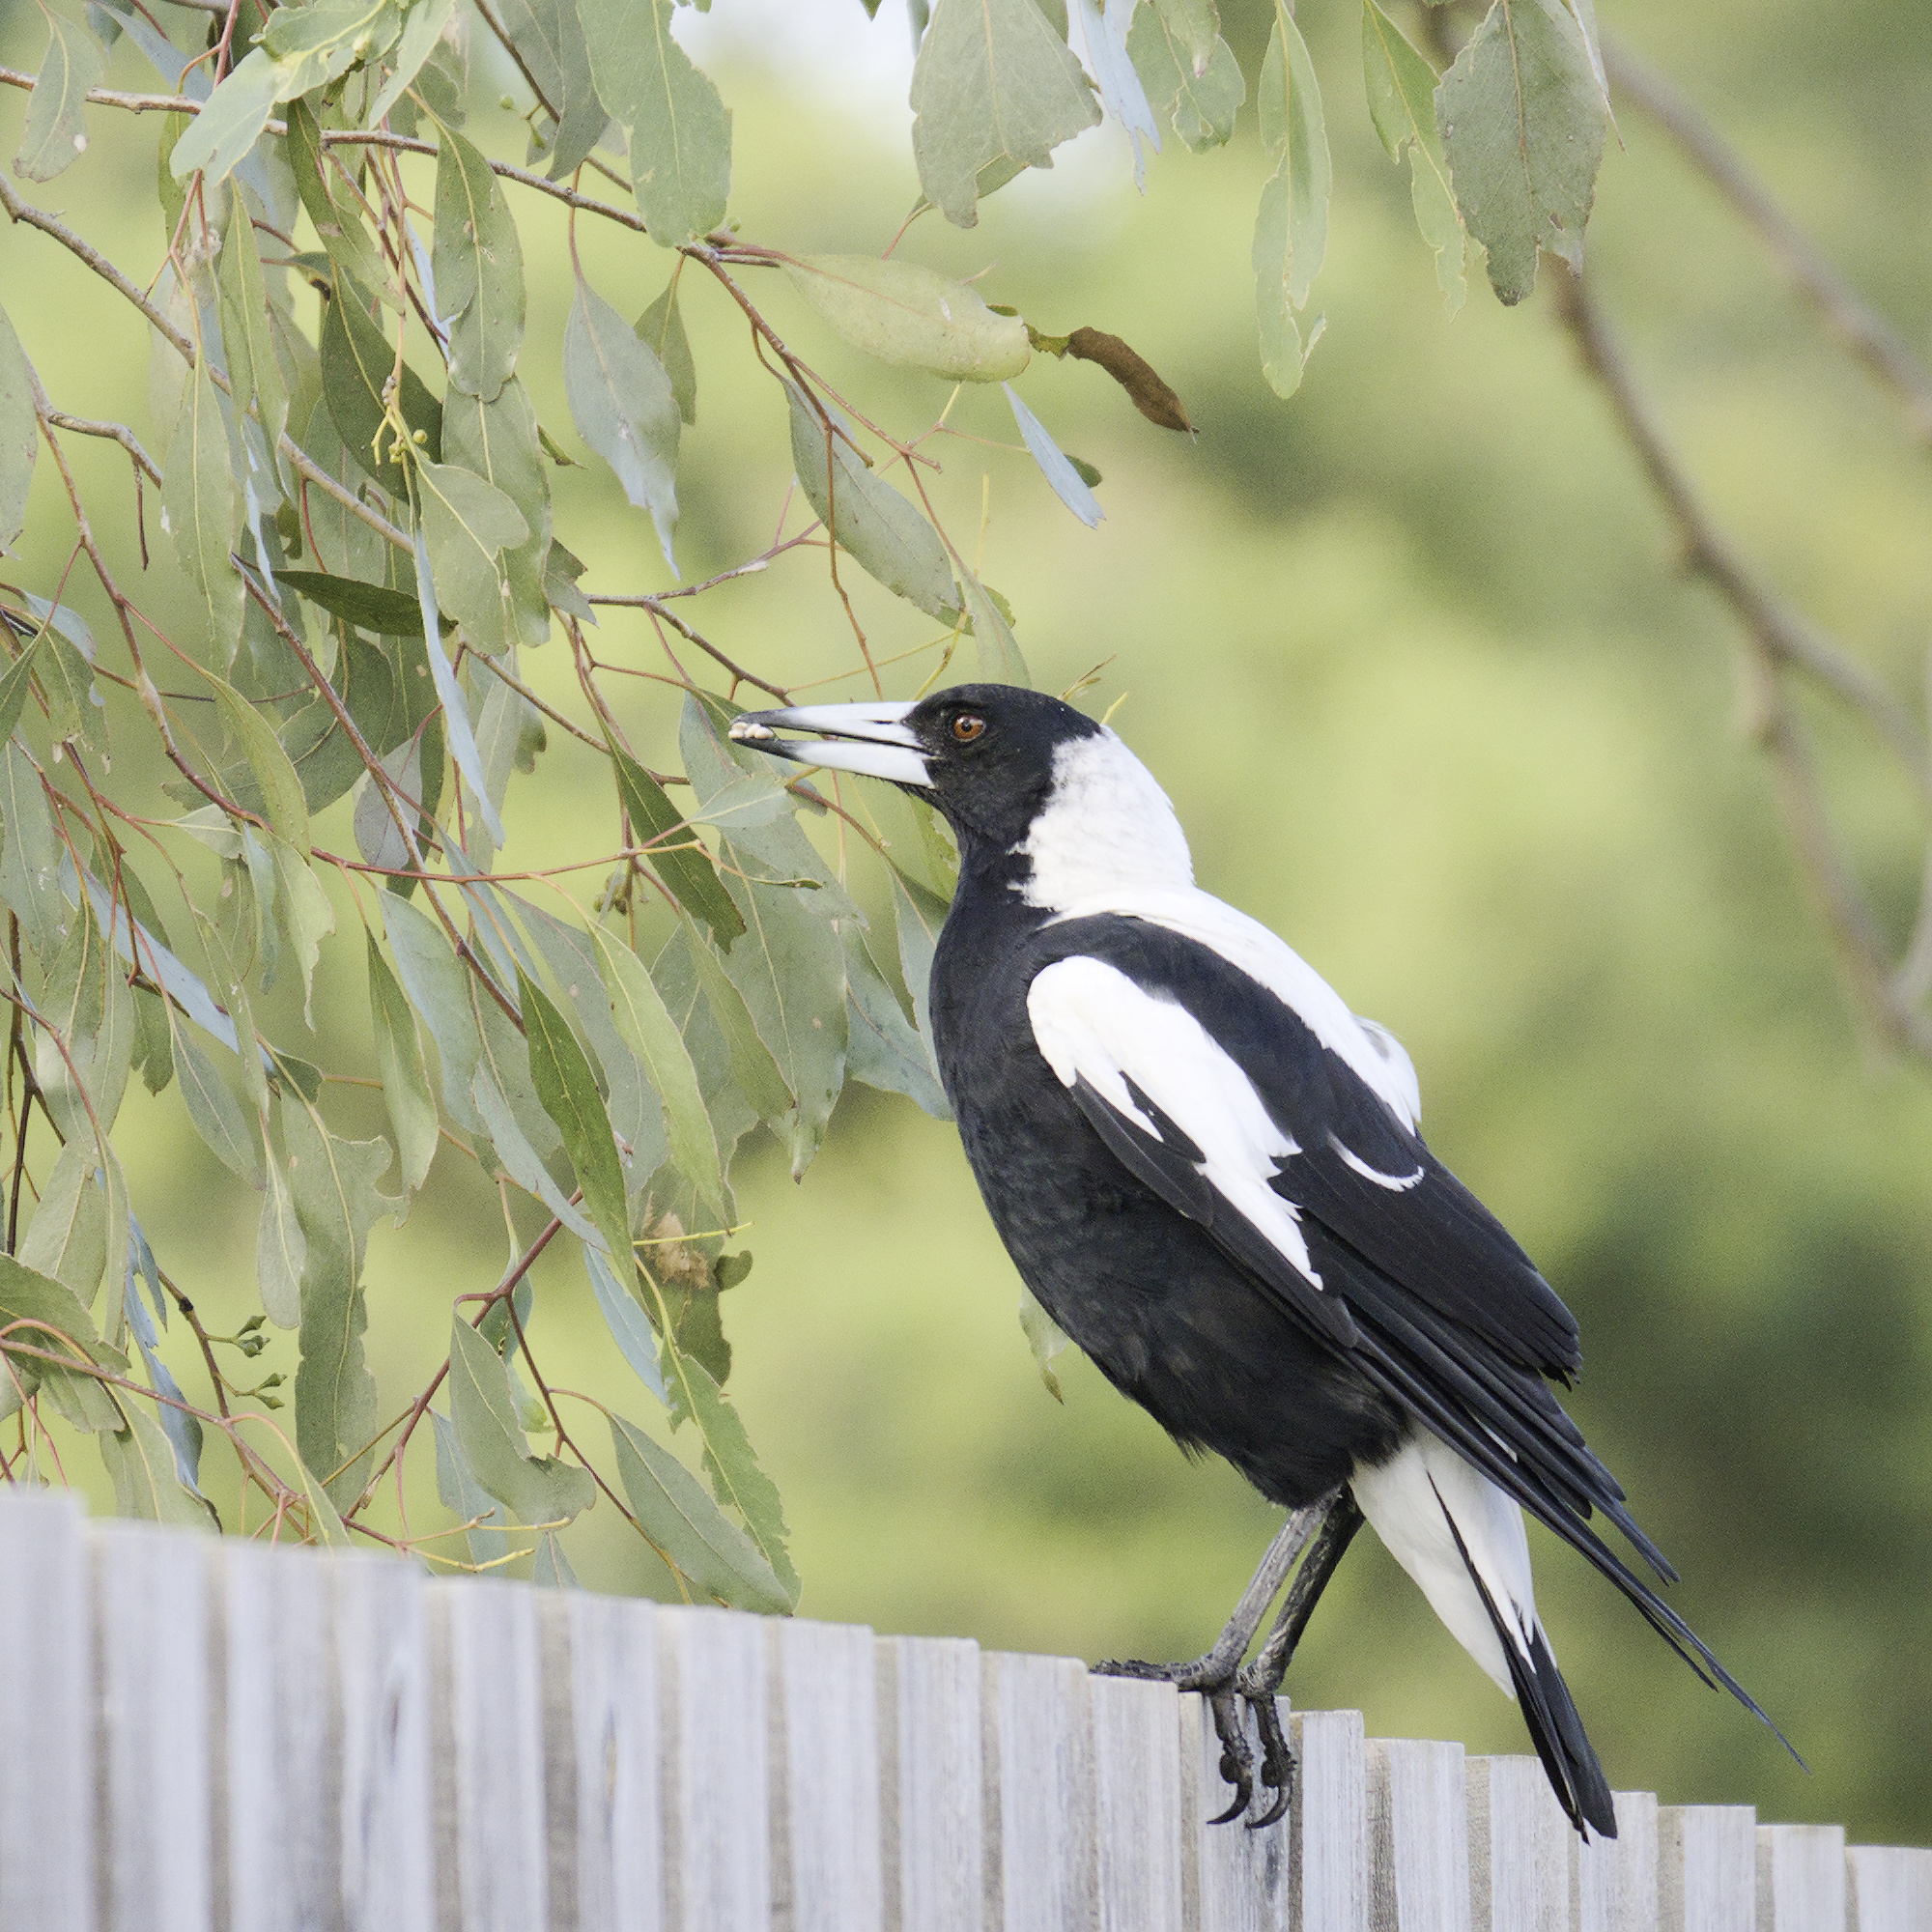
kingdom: Animalia
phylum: Chordata
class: Aves
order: Passeriformes
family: Cracticidae
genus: Gymnorhina
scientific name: Gymnorhina tibicen
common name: Australian magpie
